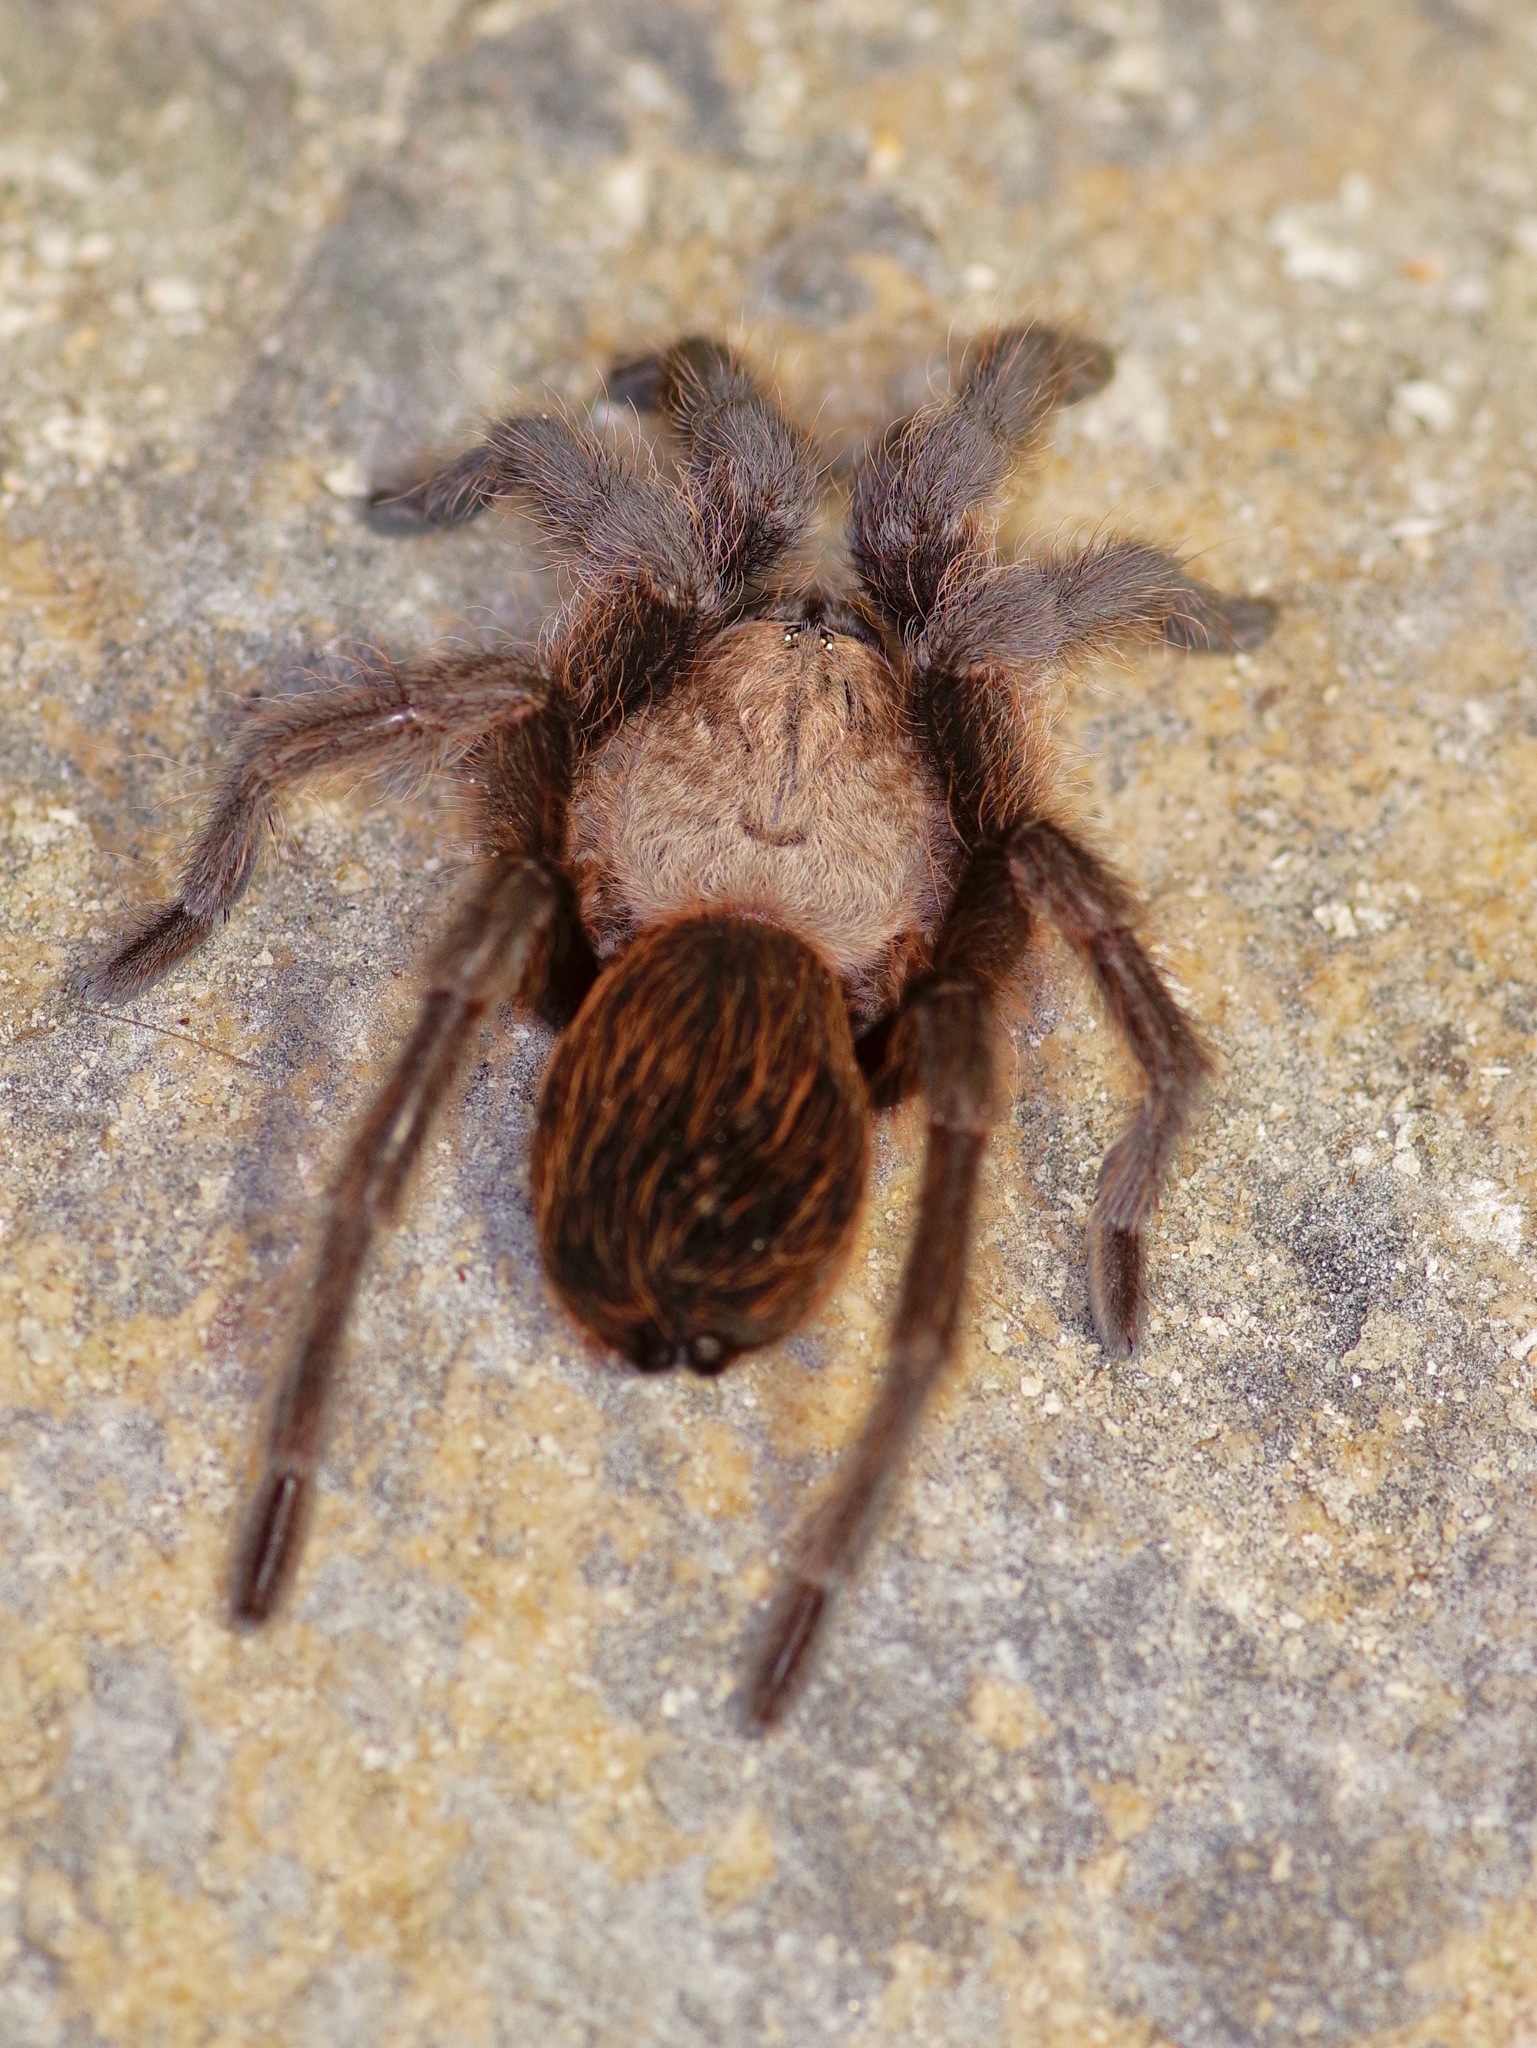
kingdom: Animalia
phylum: Arthropoda
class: Arachnida
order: Araneae
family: Theraphosidae
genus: Aphonopelma
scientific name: Aphonopelma hentzi
